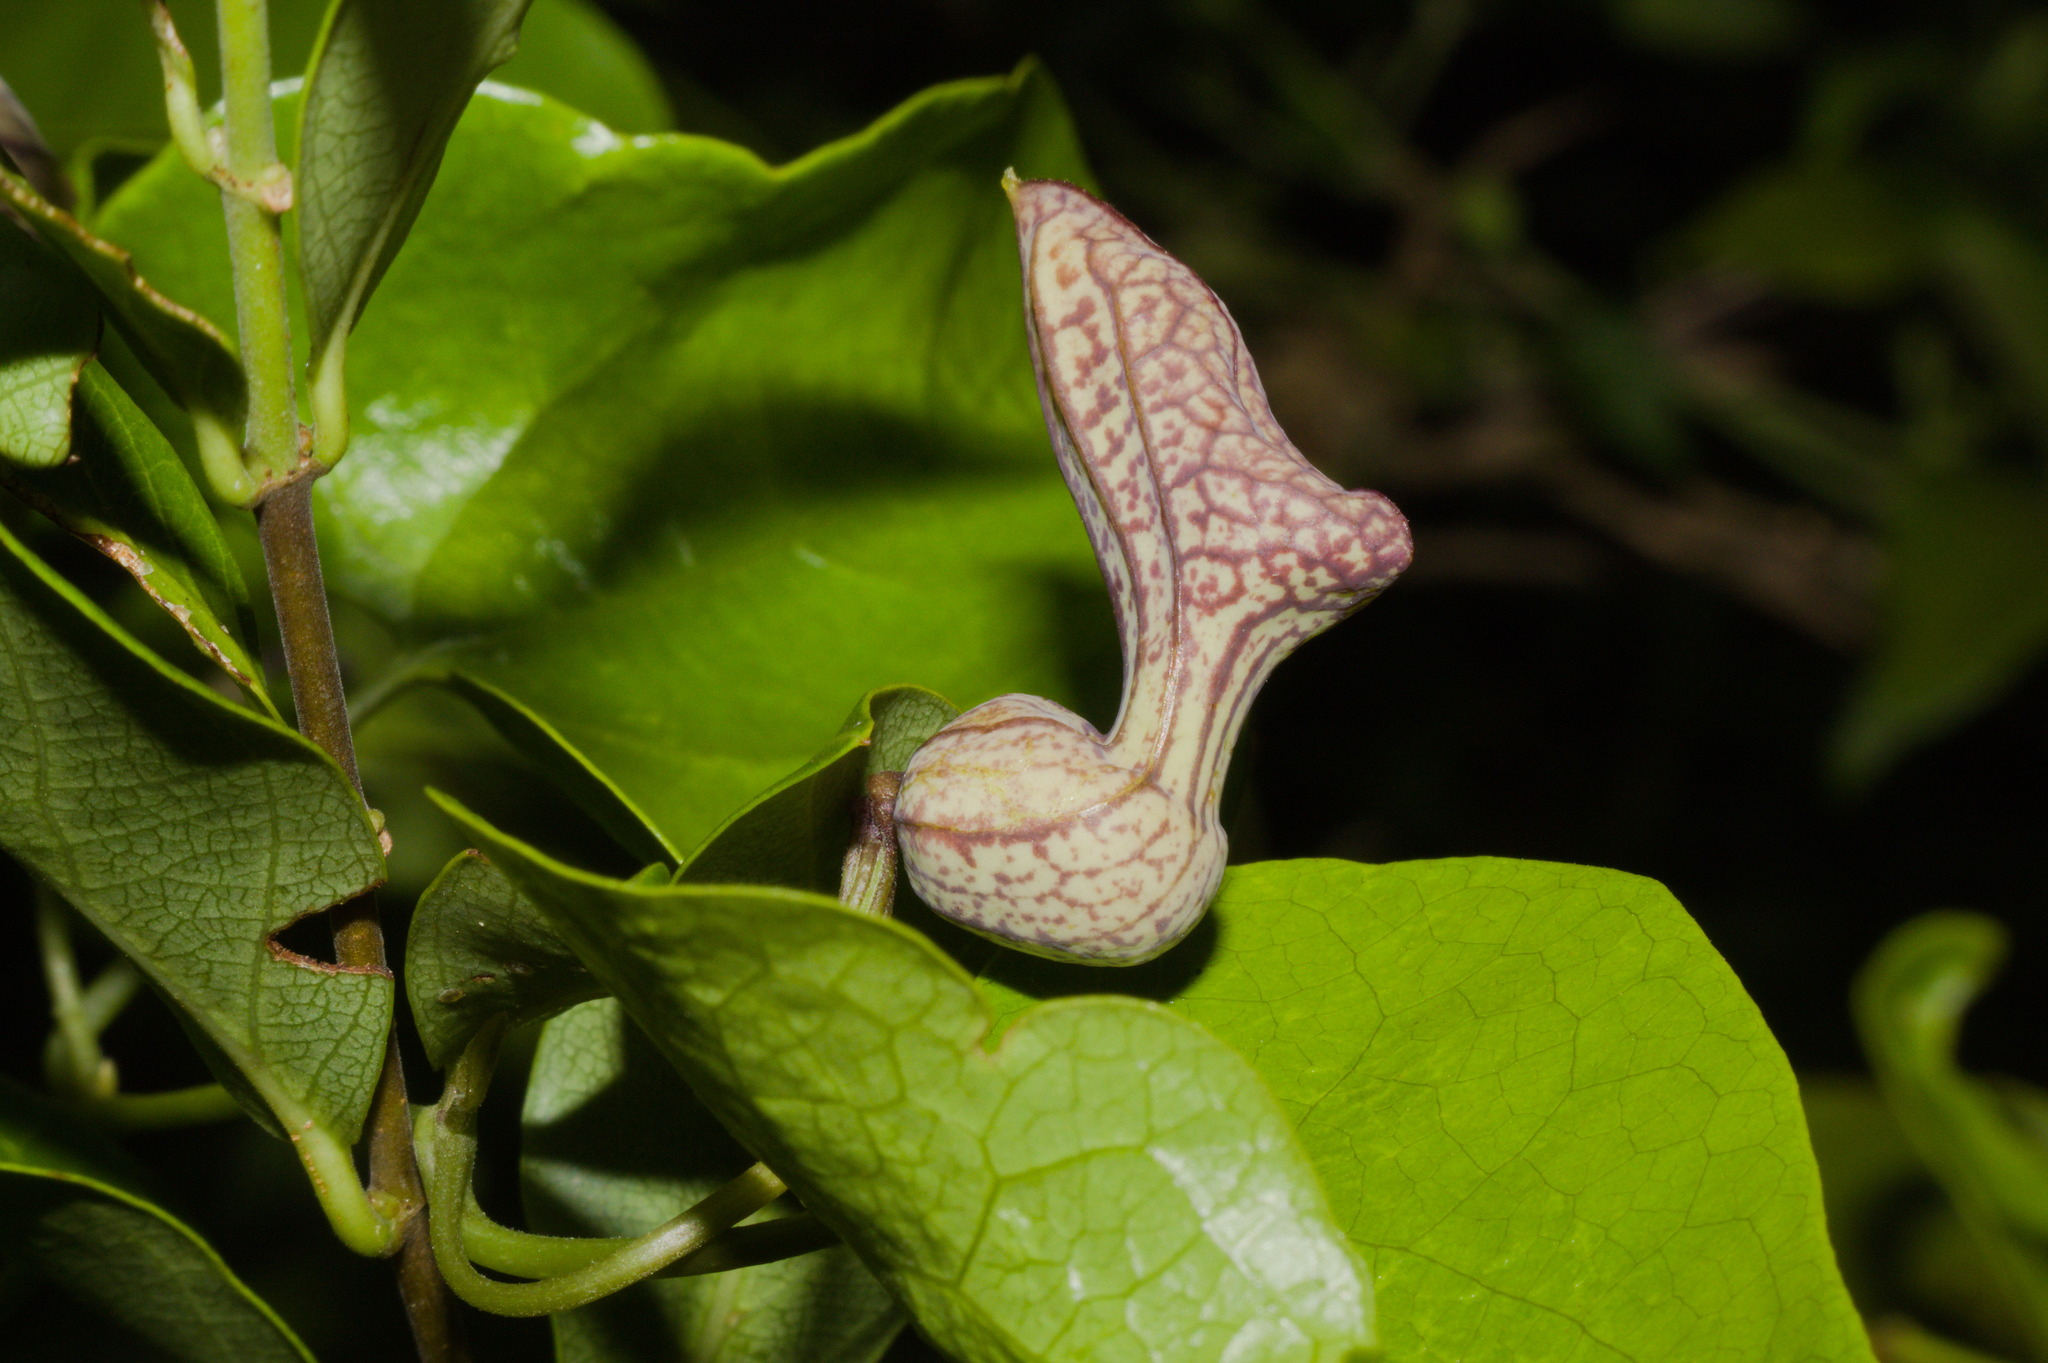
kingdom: Plantae
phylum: Tracheophyta
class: Magnoliopsida
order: Piperales
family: Aristolochiaceae
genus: Aristolochia
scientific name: Aristolochia triangularis
